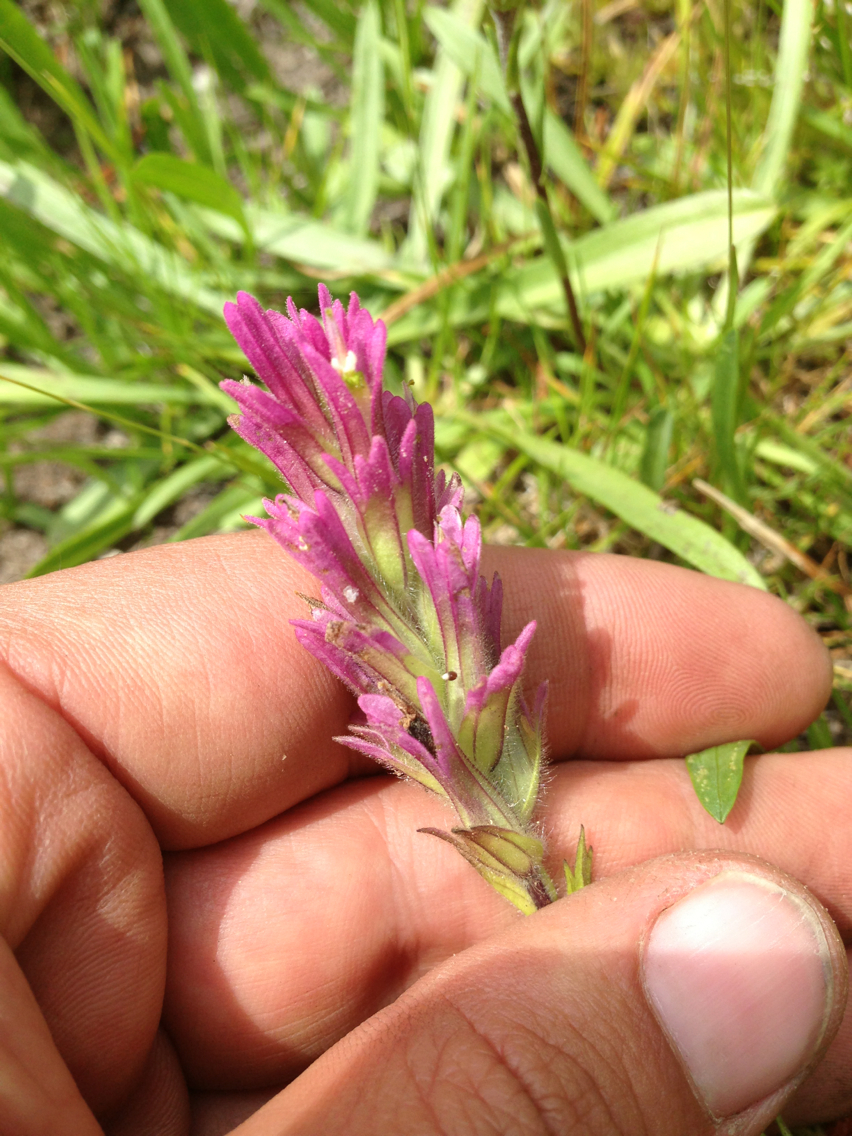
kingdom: Plantae
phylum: Tracheophyta
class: Magnoliopsida
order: Lamiales
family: Orobanchaceae
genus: Castilleja
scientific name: Castilleja lassenensis
